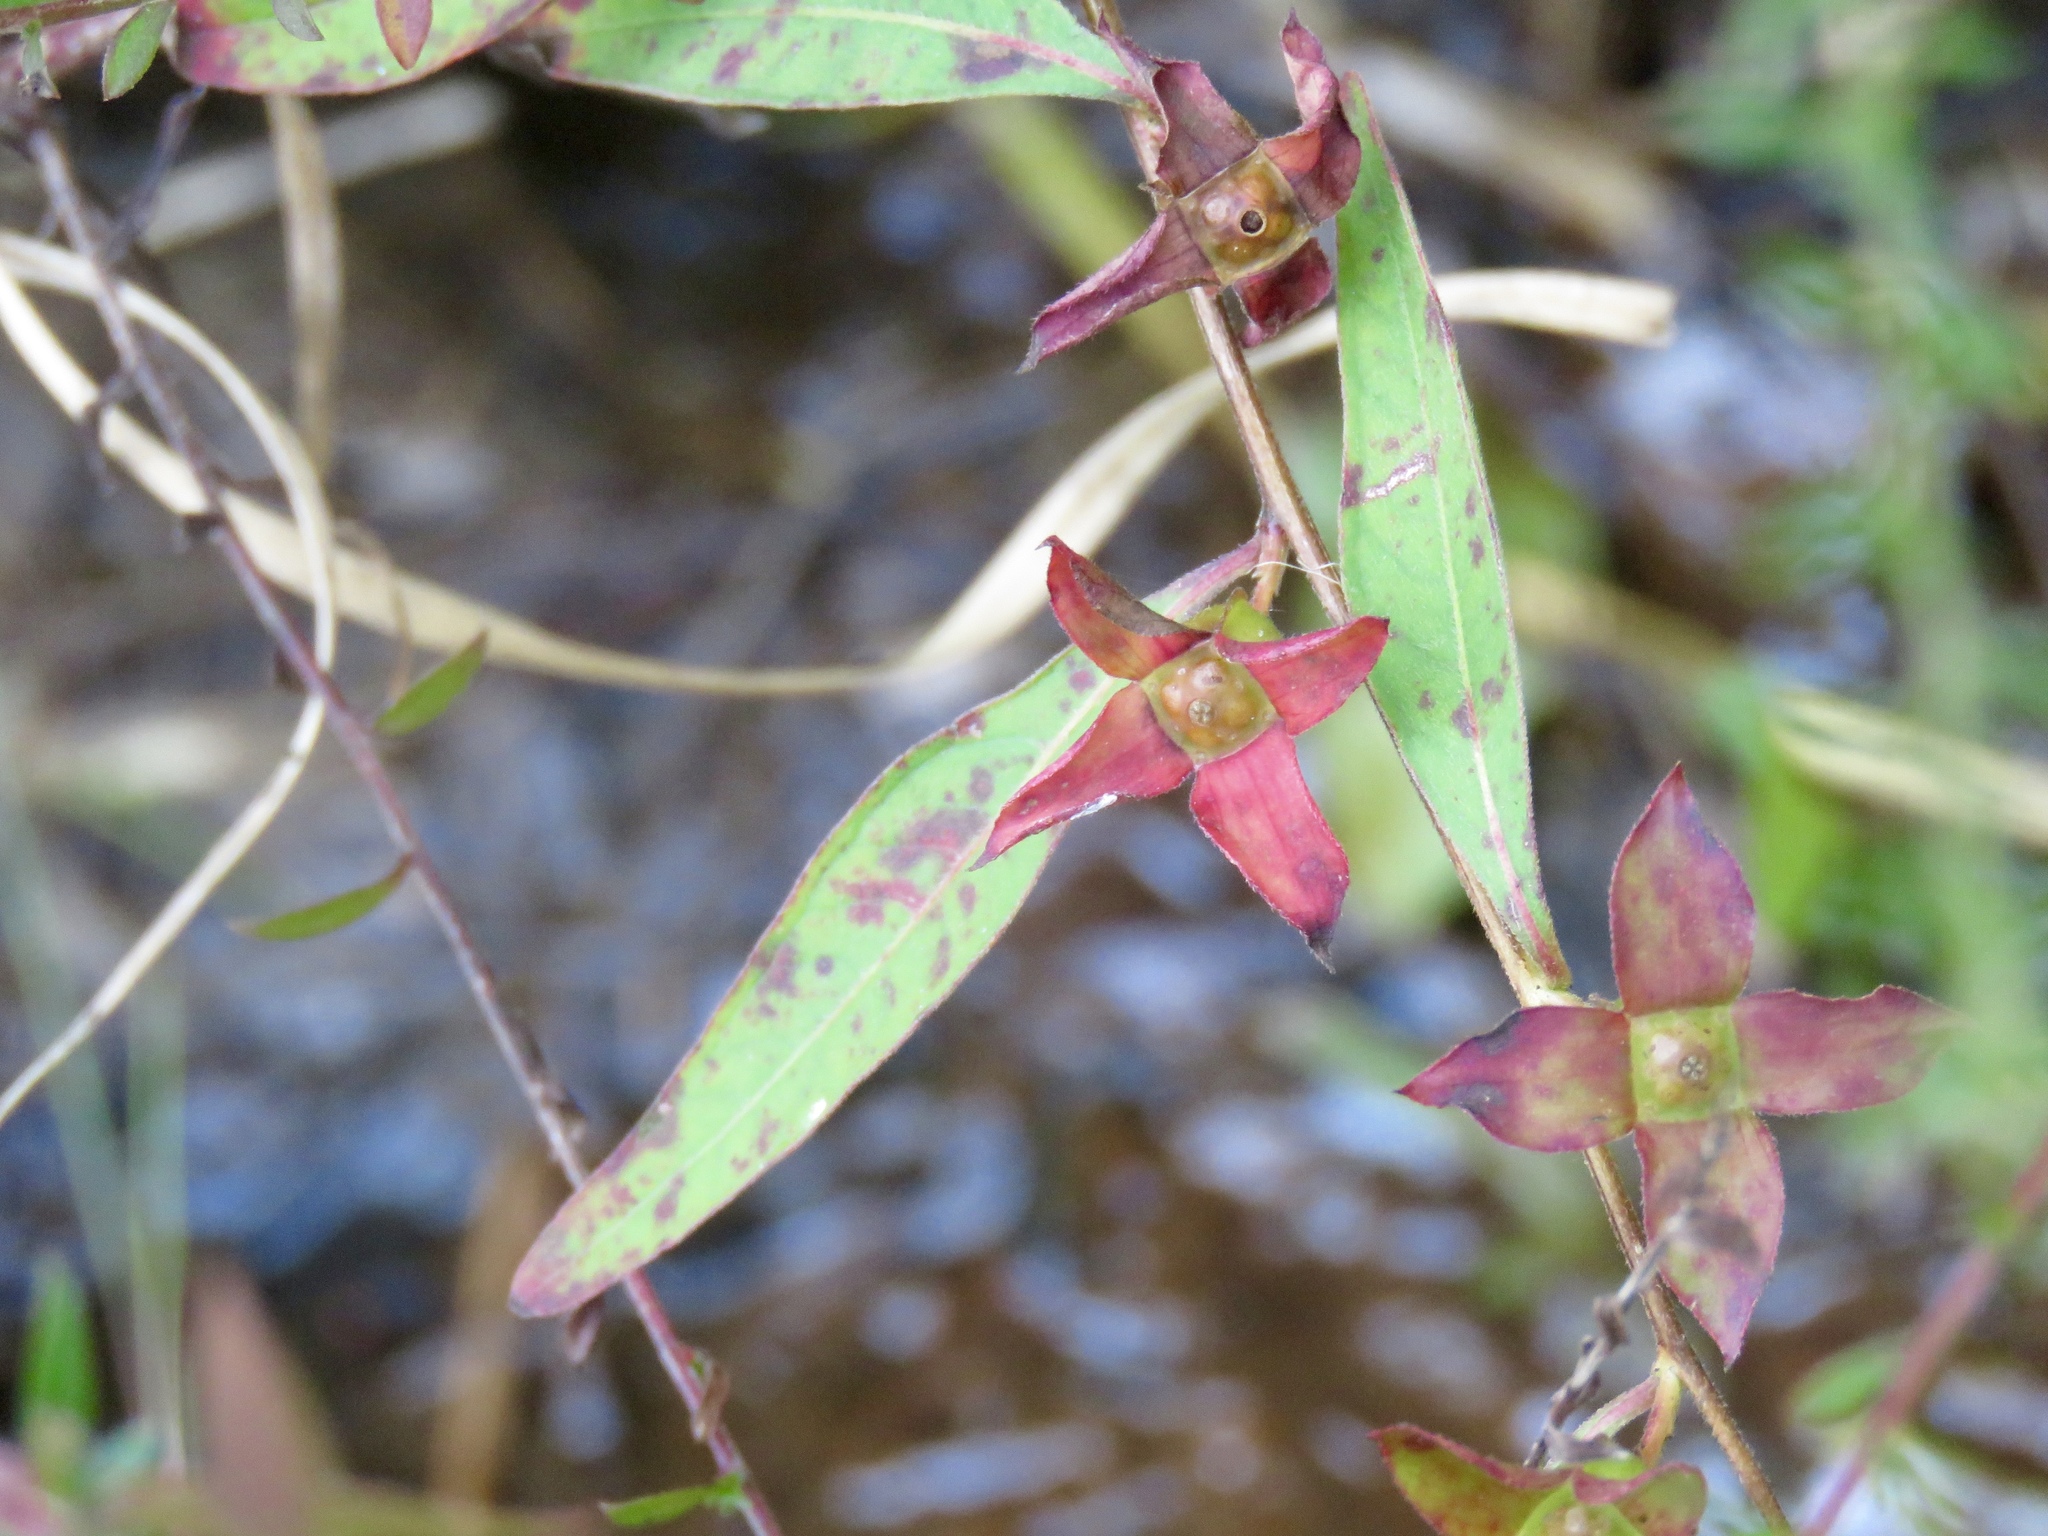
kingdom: Plantae
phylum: Tracheophyta
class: Magnoliopsida
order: Myrtales
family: Onagraceae
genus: Ludwigia
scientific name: Ludwigia alternifolia
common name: Rattlebox
